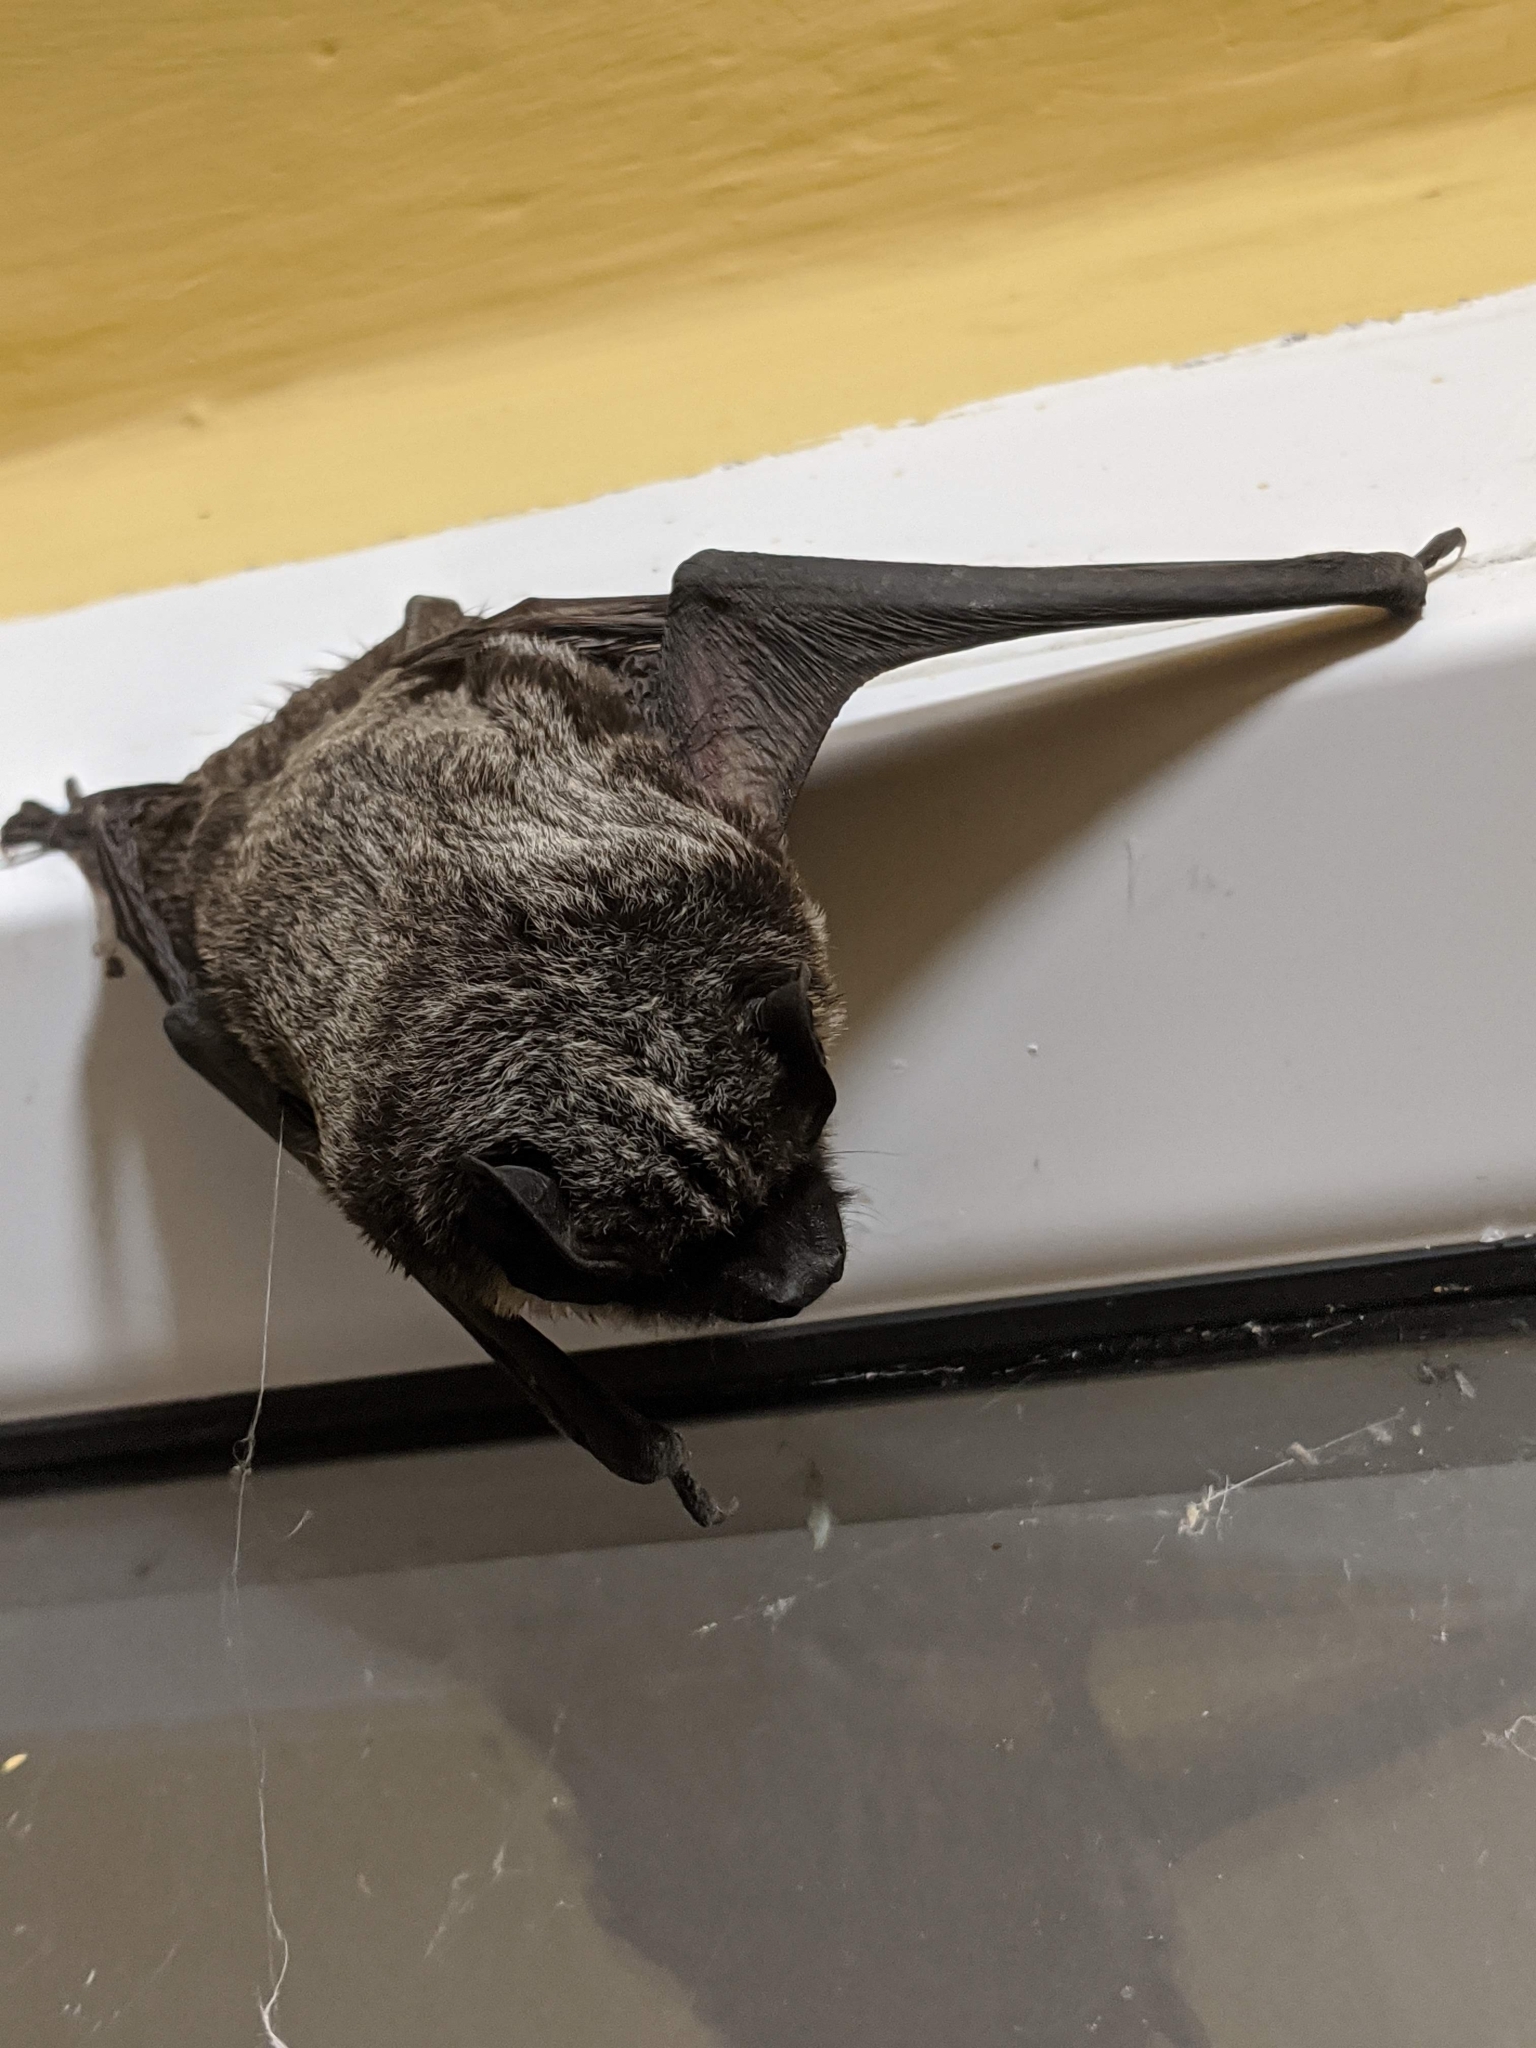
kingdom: Animalia
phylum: Chordata
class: Mammalia
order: Chiroptera
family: Vespertilionidae
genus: Vespertilio
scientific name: Vespertilio murinus
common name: Particolored bat
